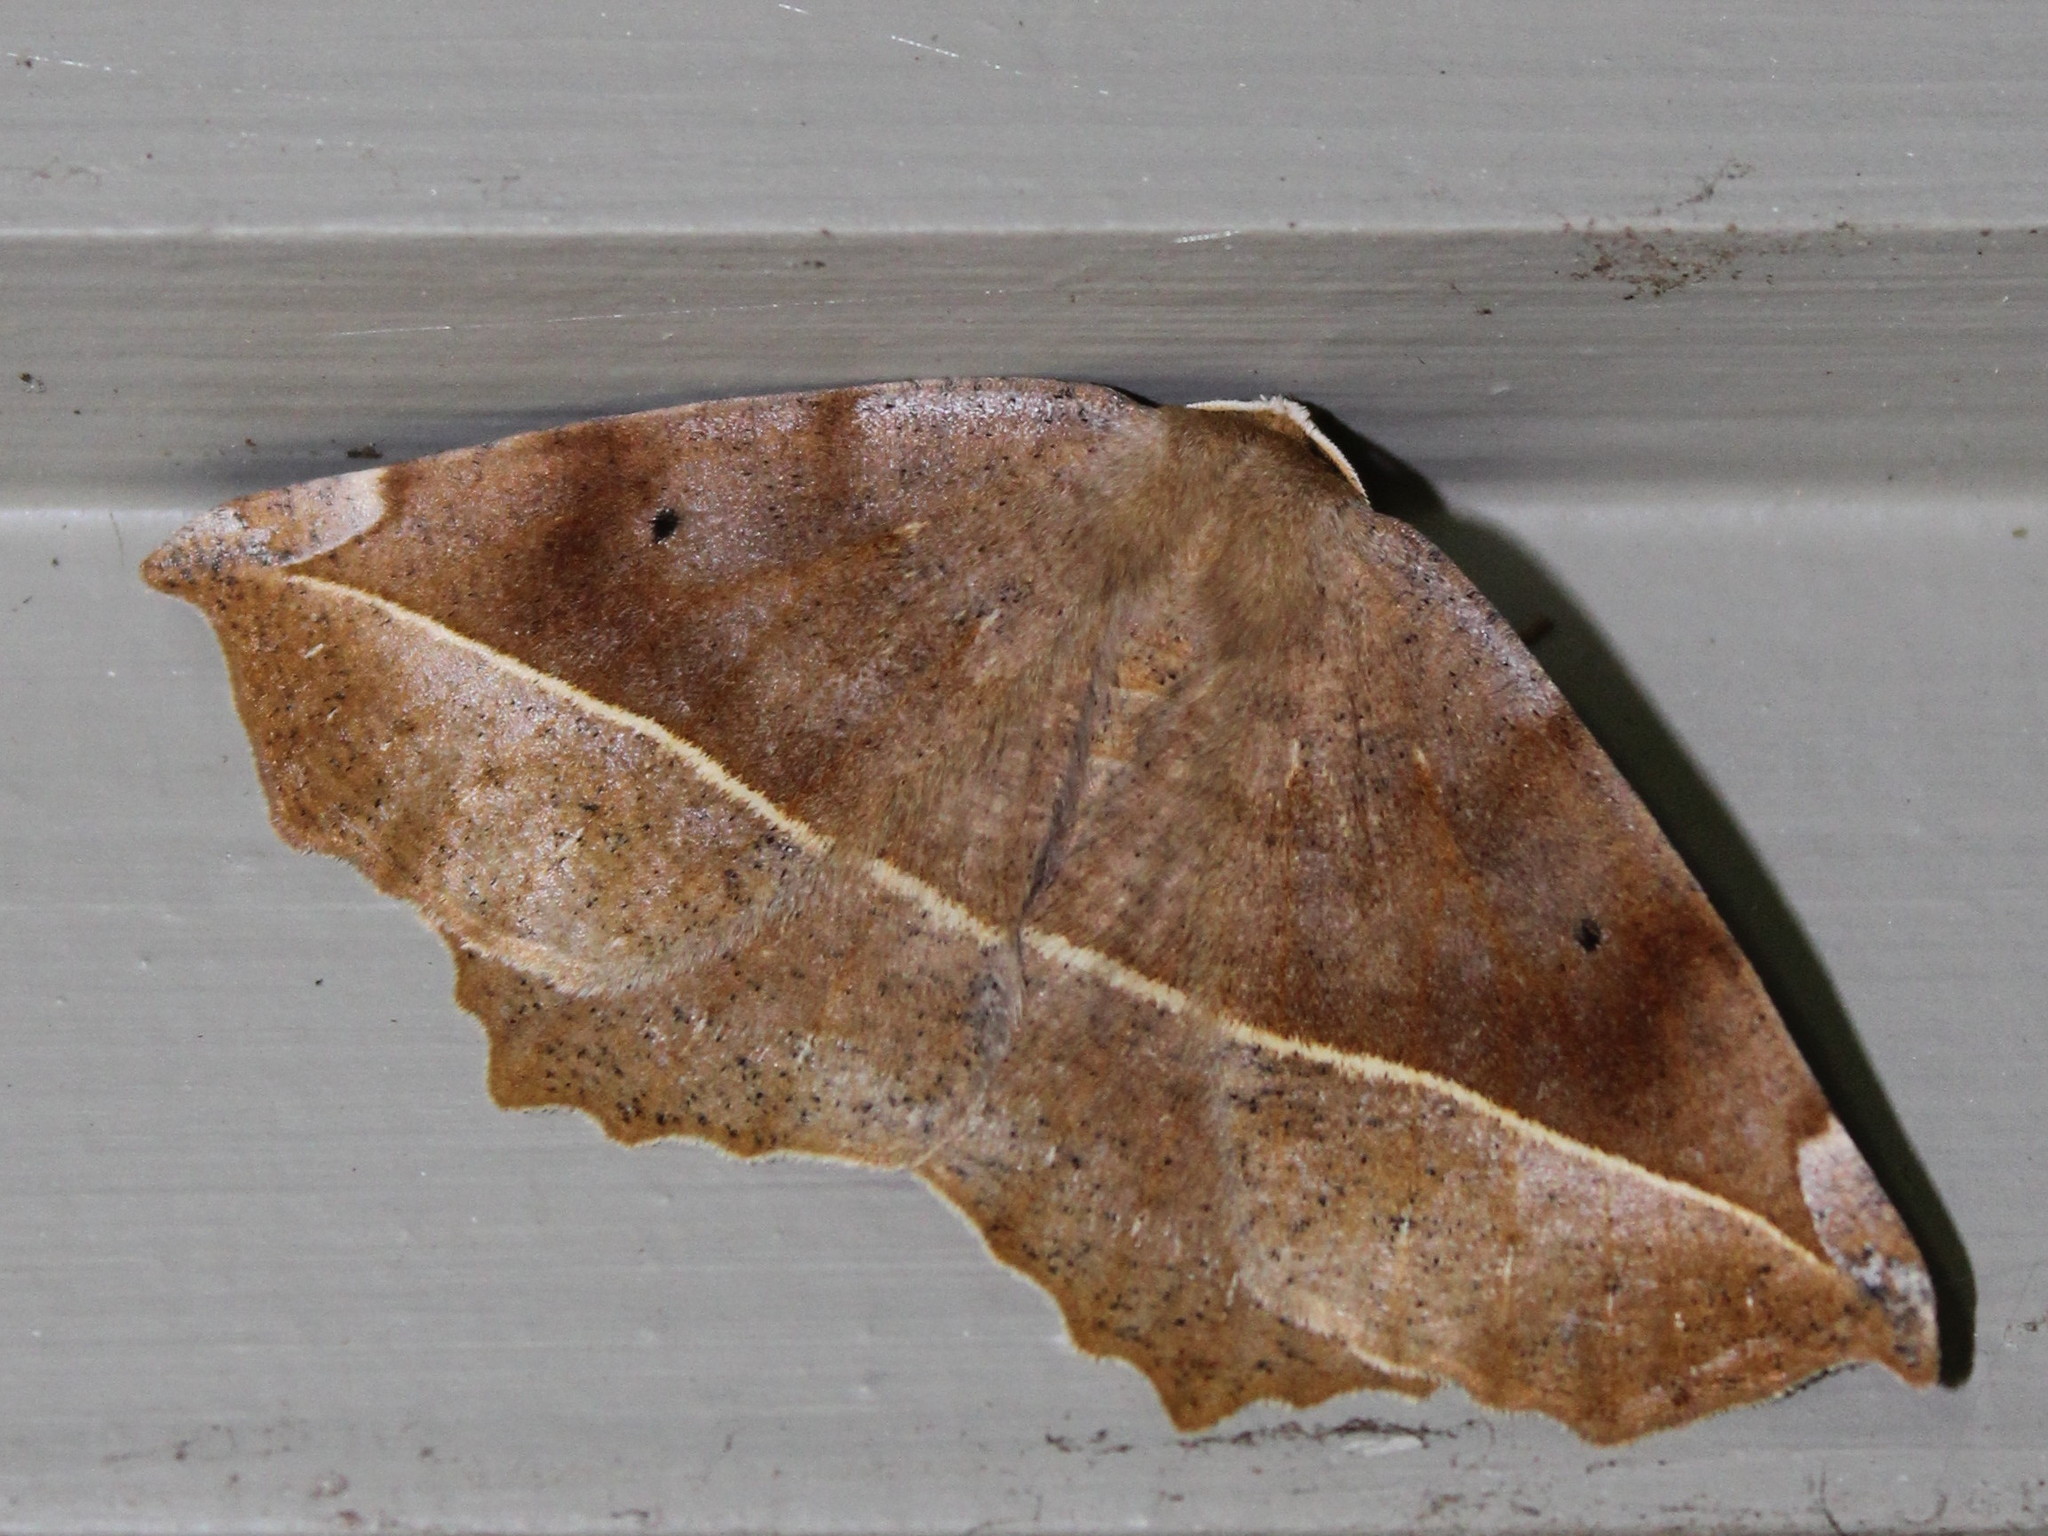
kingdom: Animalia
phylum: Arthropoda
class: Insecta
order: Lepidoptera
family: Geometridae
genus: Eutrapela
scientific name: Eutrapela clemataria
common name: Curved-toothed geometer
